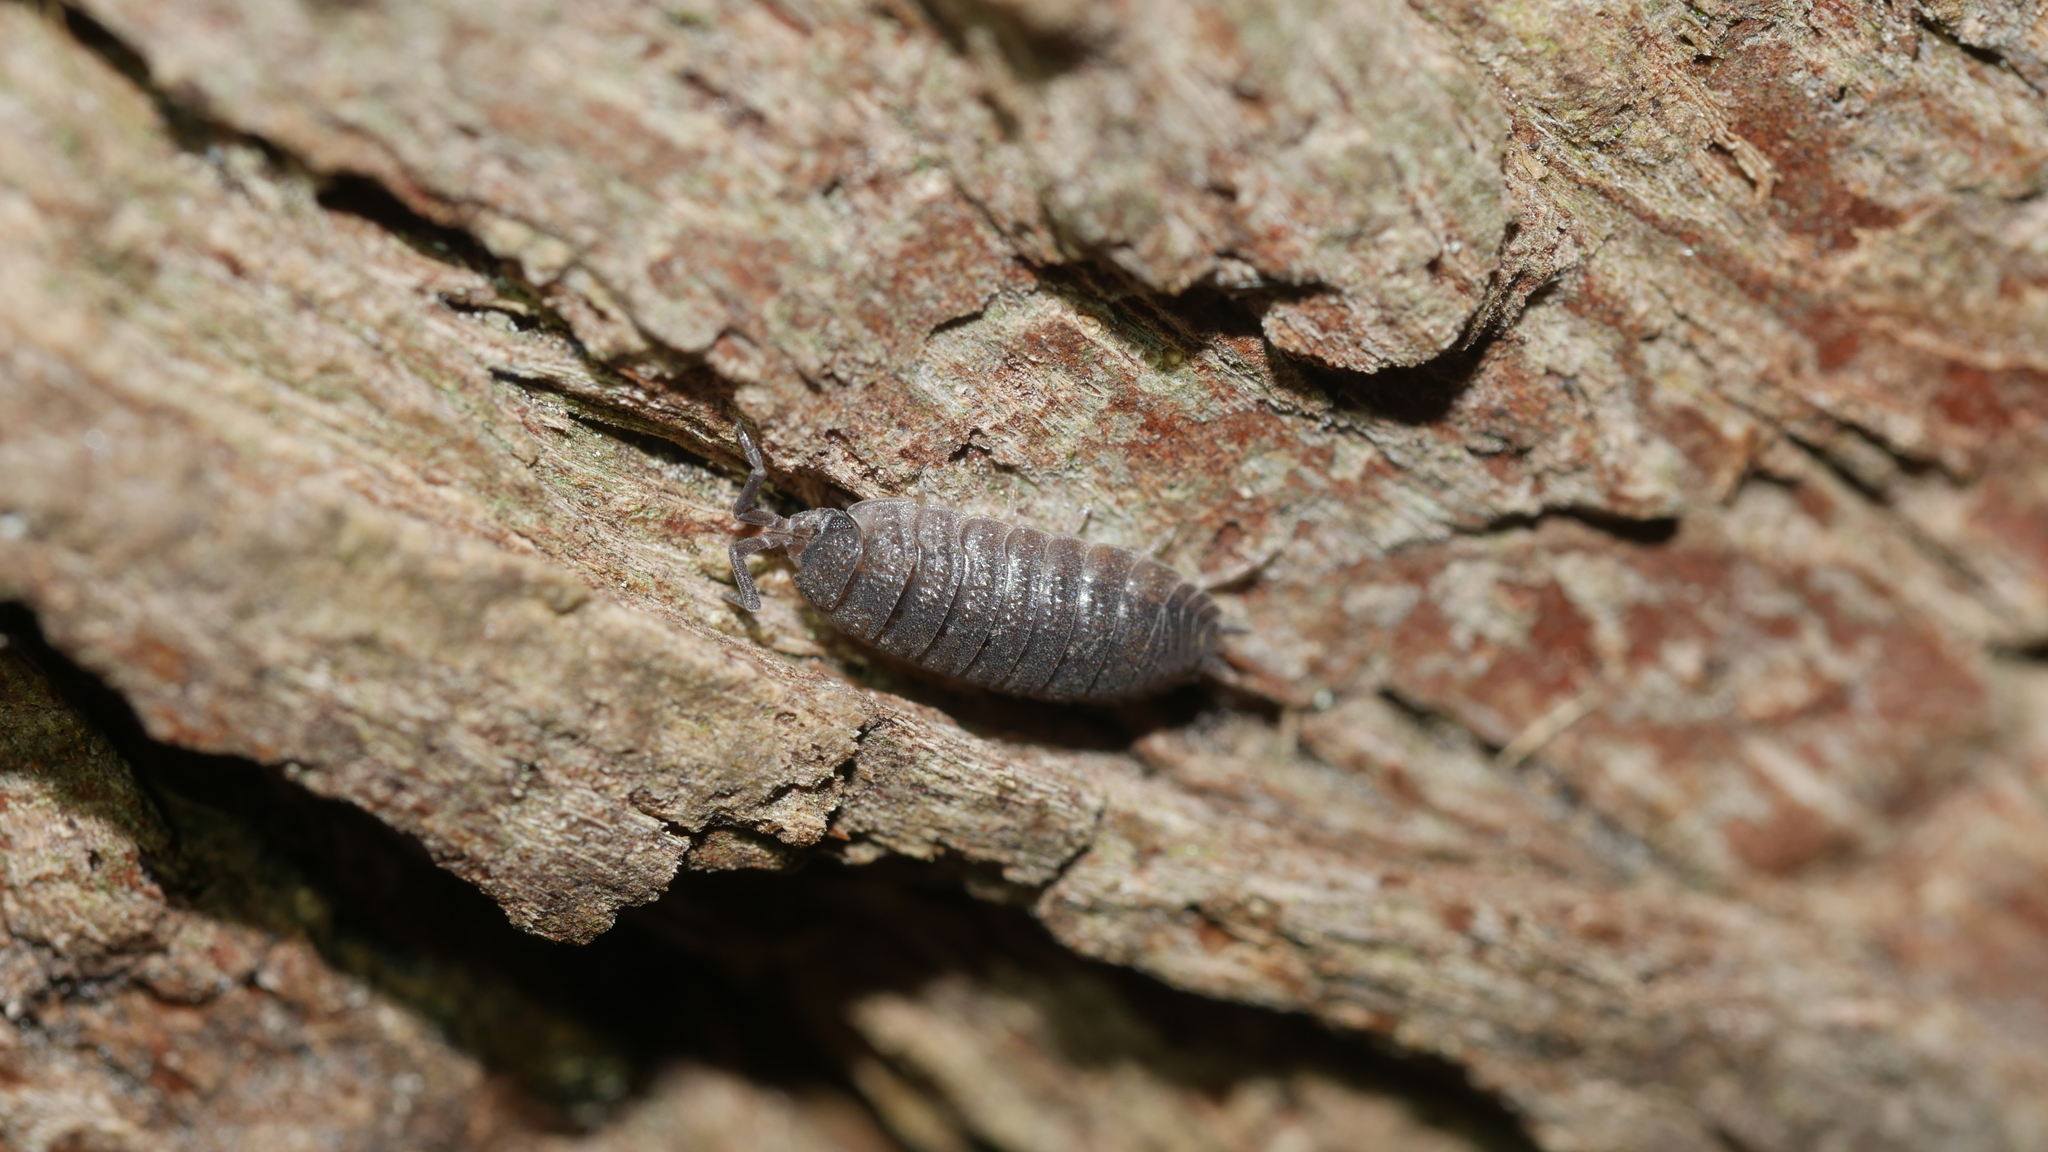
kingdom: Animalia
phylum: Arthropoda
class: Malacostraca
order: Isopoda
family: Porcellionidae
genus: Porcellio
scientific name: Porcellio scaber
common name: Common rough woodlouse
